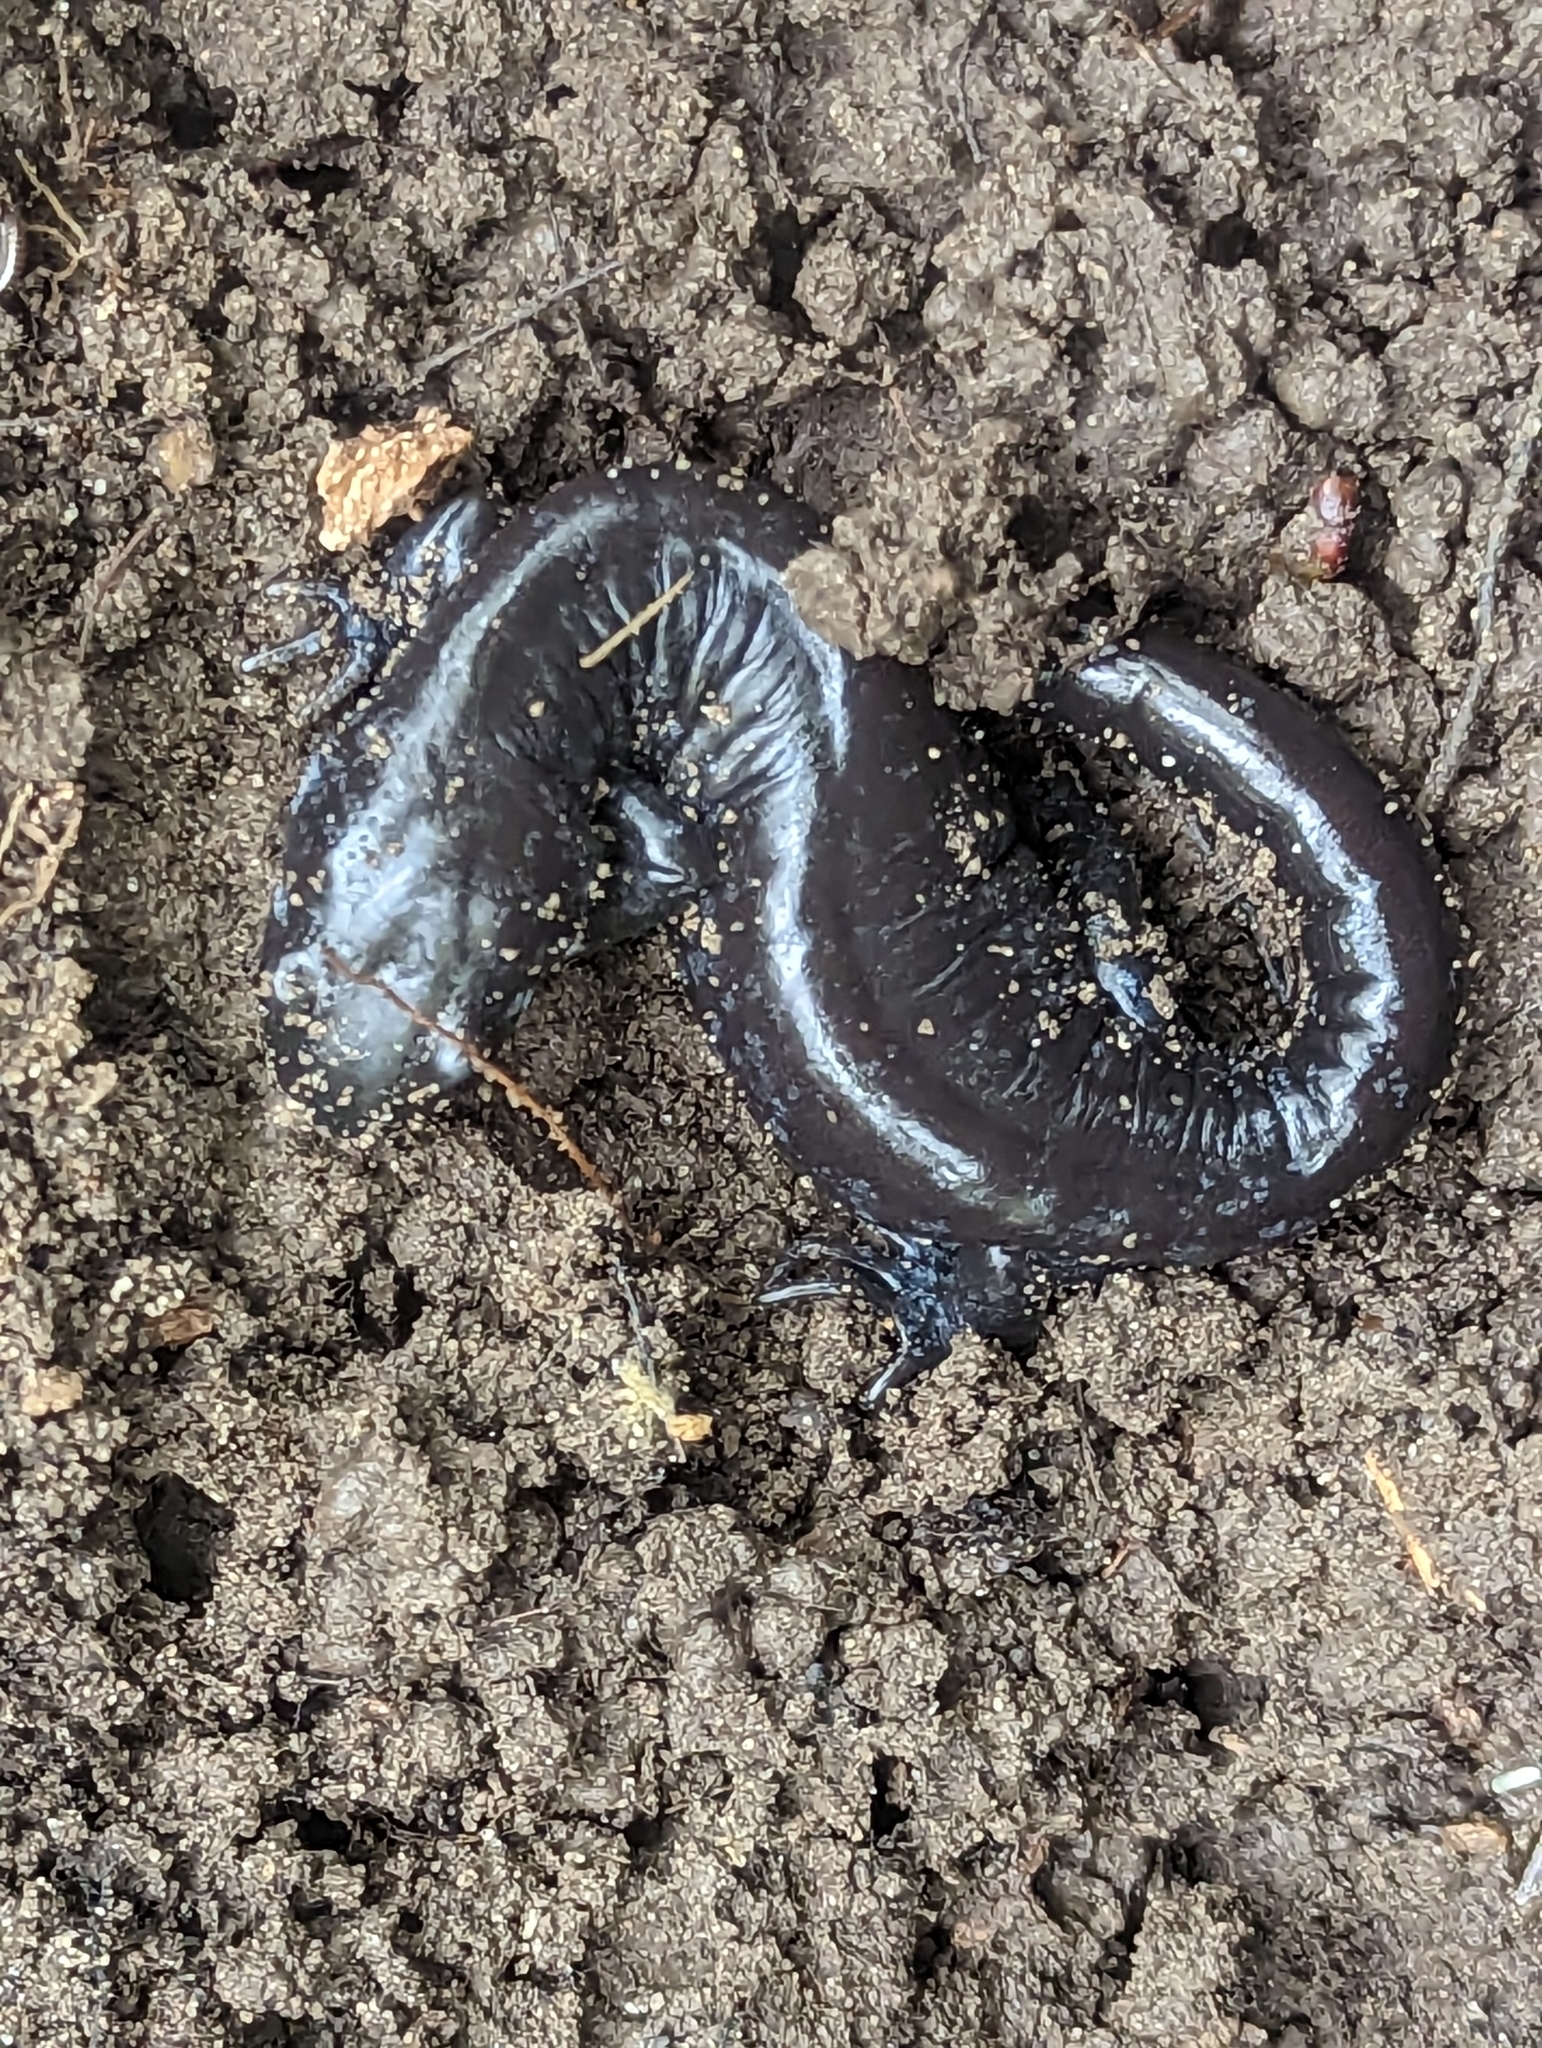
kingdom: Animalia
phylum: Chordata
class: Amphibia
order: Caudata
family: Ambystomatidae
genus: Ambystoma
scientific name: Ambystoma laterale
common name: Blue-spotted salamander
